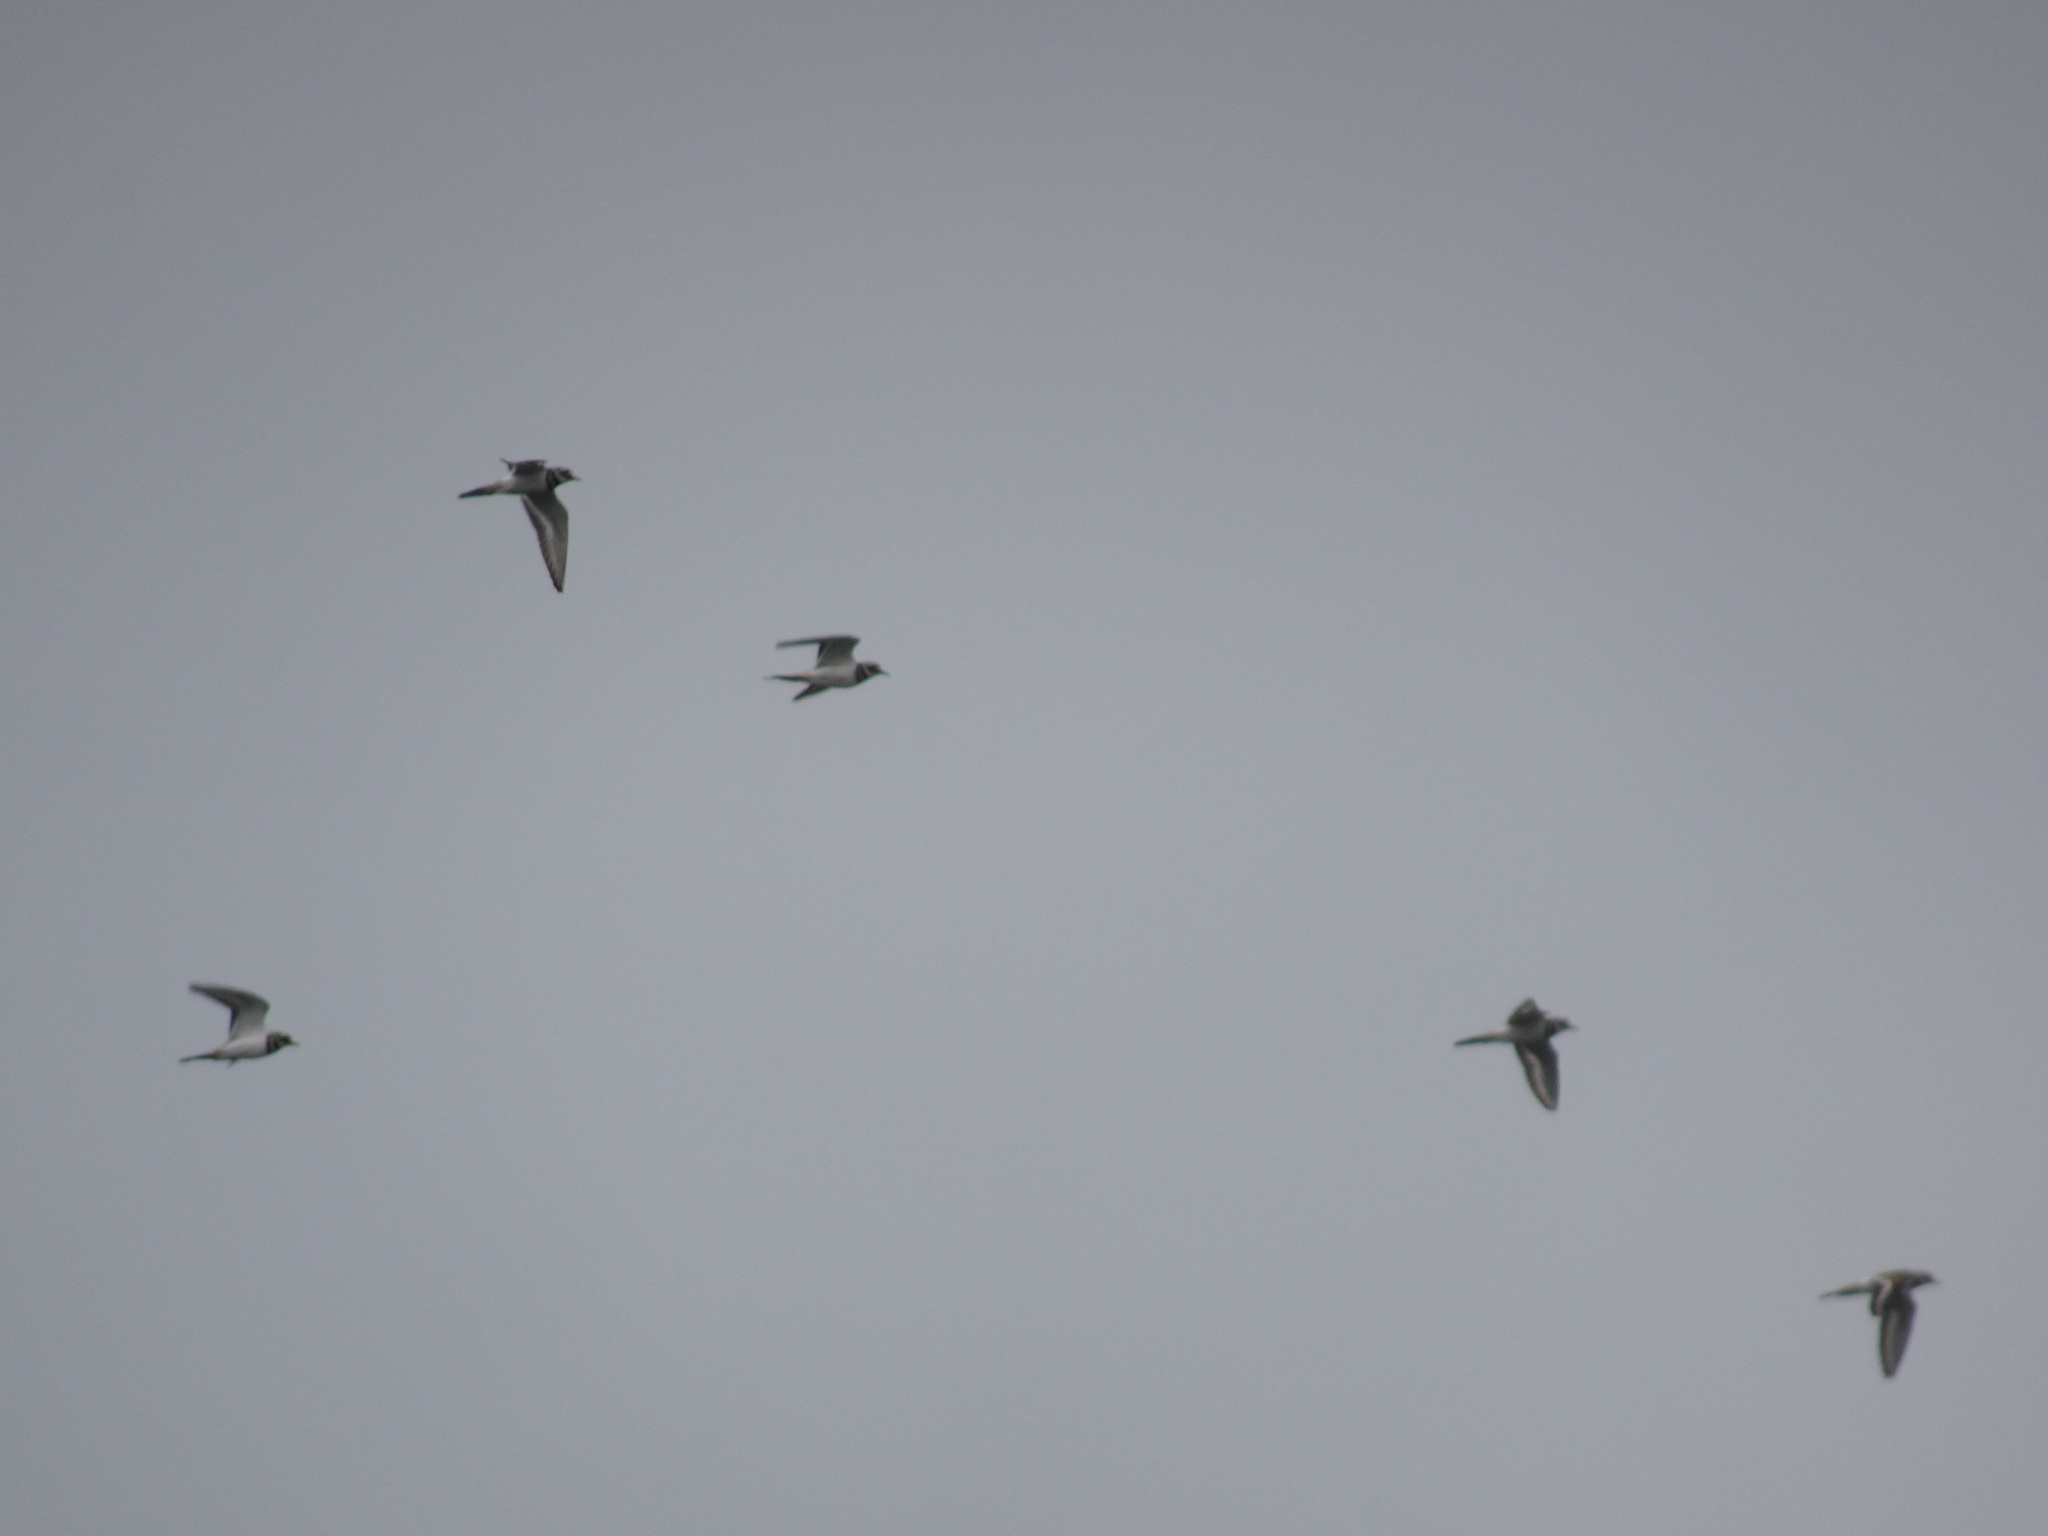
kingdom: Animalia
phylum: Chordata
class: Aves
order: Charadriiformes
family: Charadriidae
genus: Charadrius
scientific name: Charadrius vociferus
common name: Killdeer
